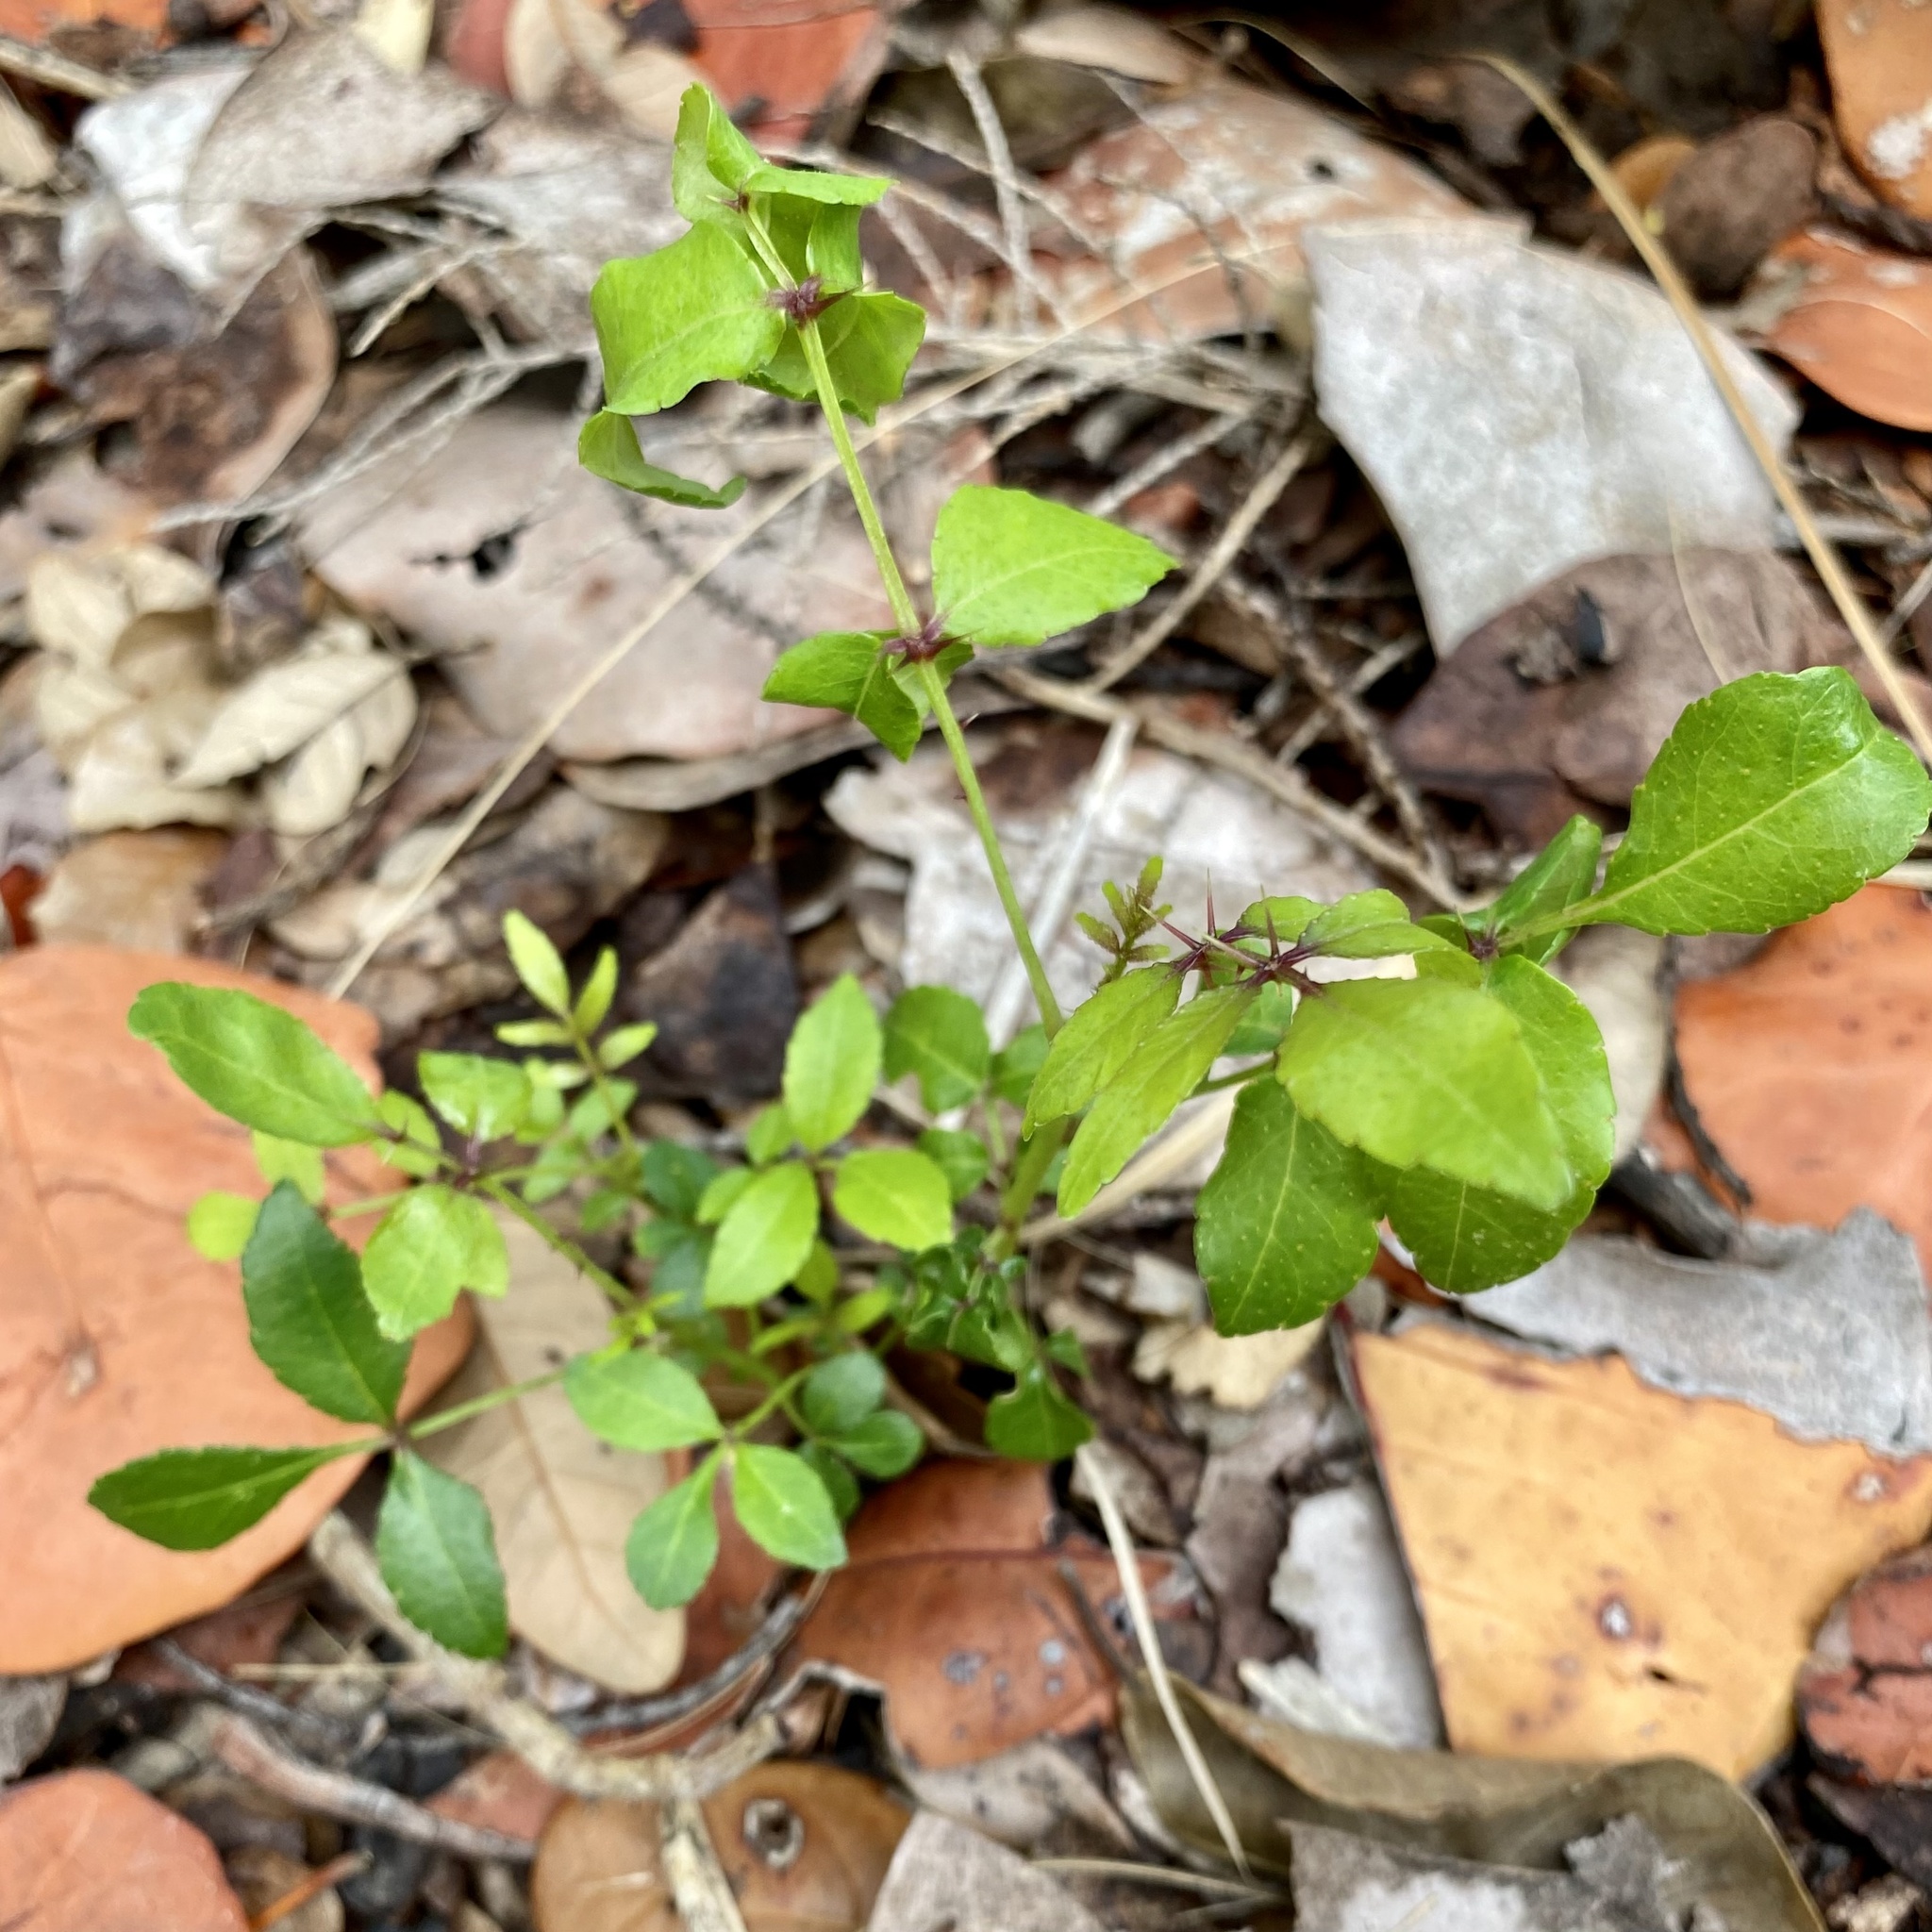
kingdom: Plantae
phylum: Tracheophyta
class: Magnoliopsida
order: Sapindales
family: Rutaceae
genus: Zanthoxylum
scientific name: Zanthoxylum clava-herculis
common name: Hercules'-club
